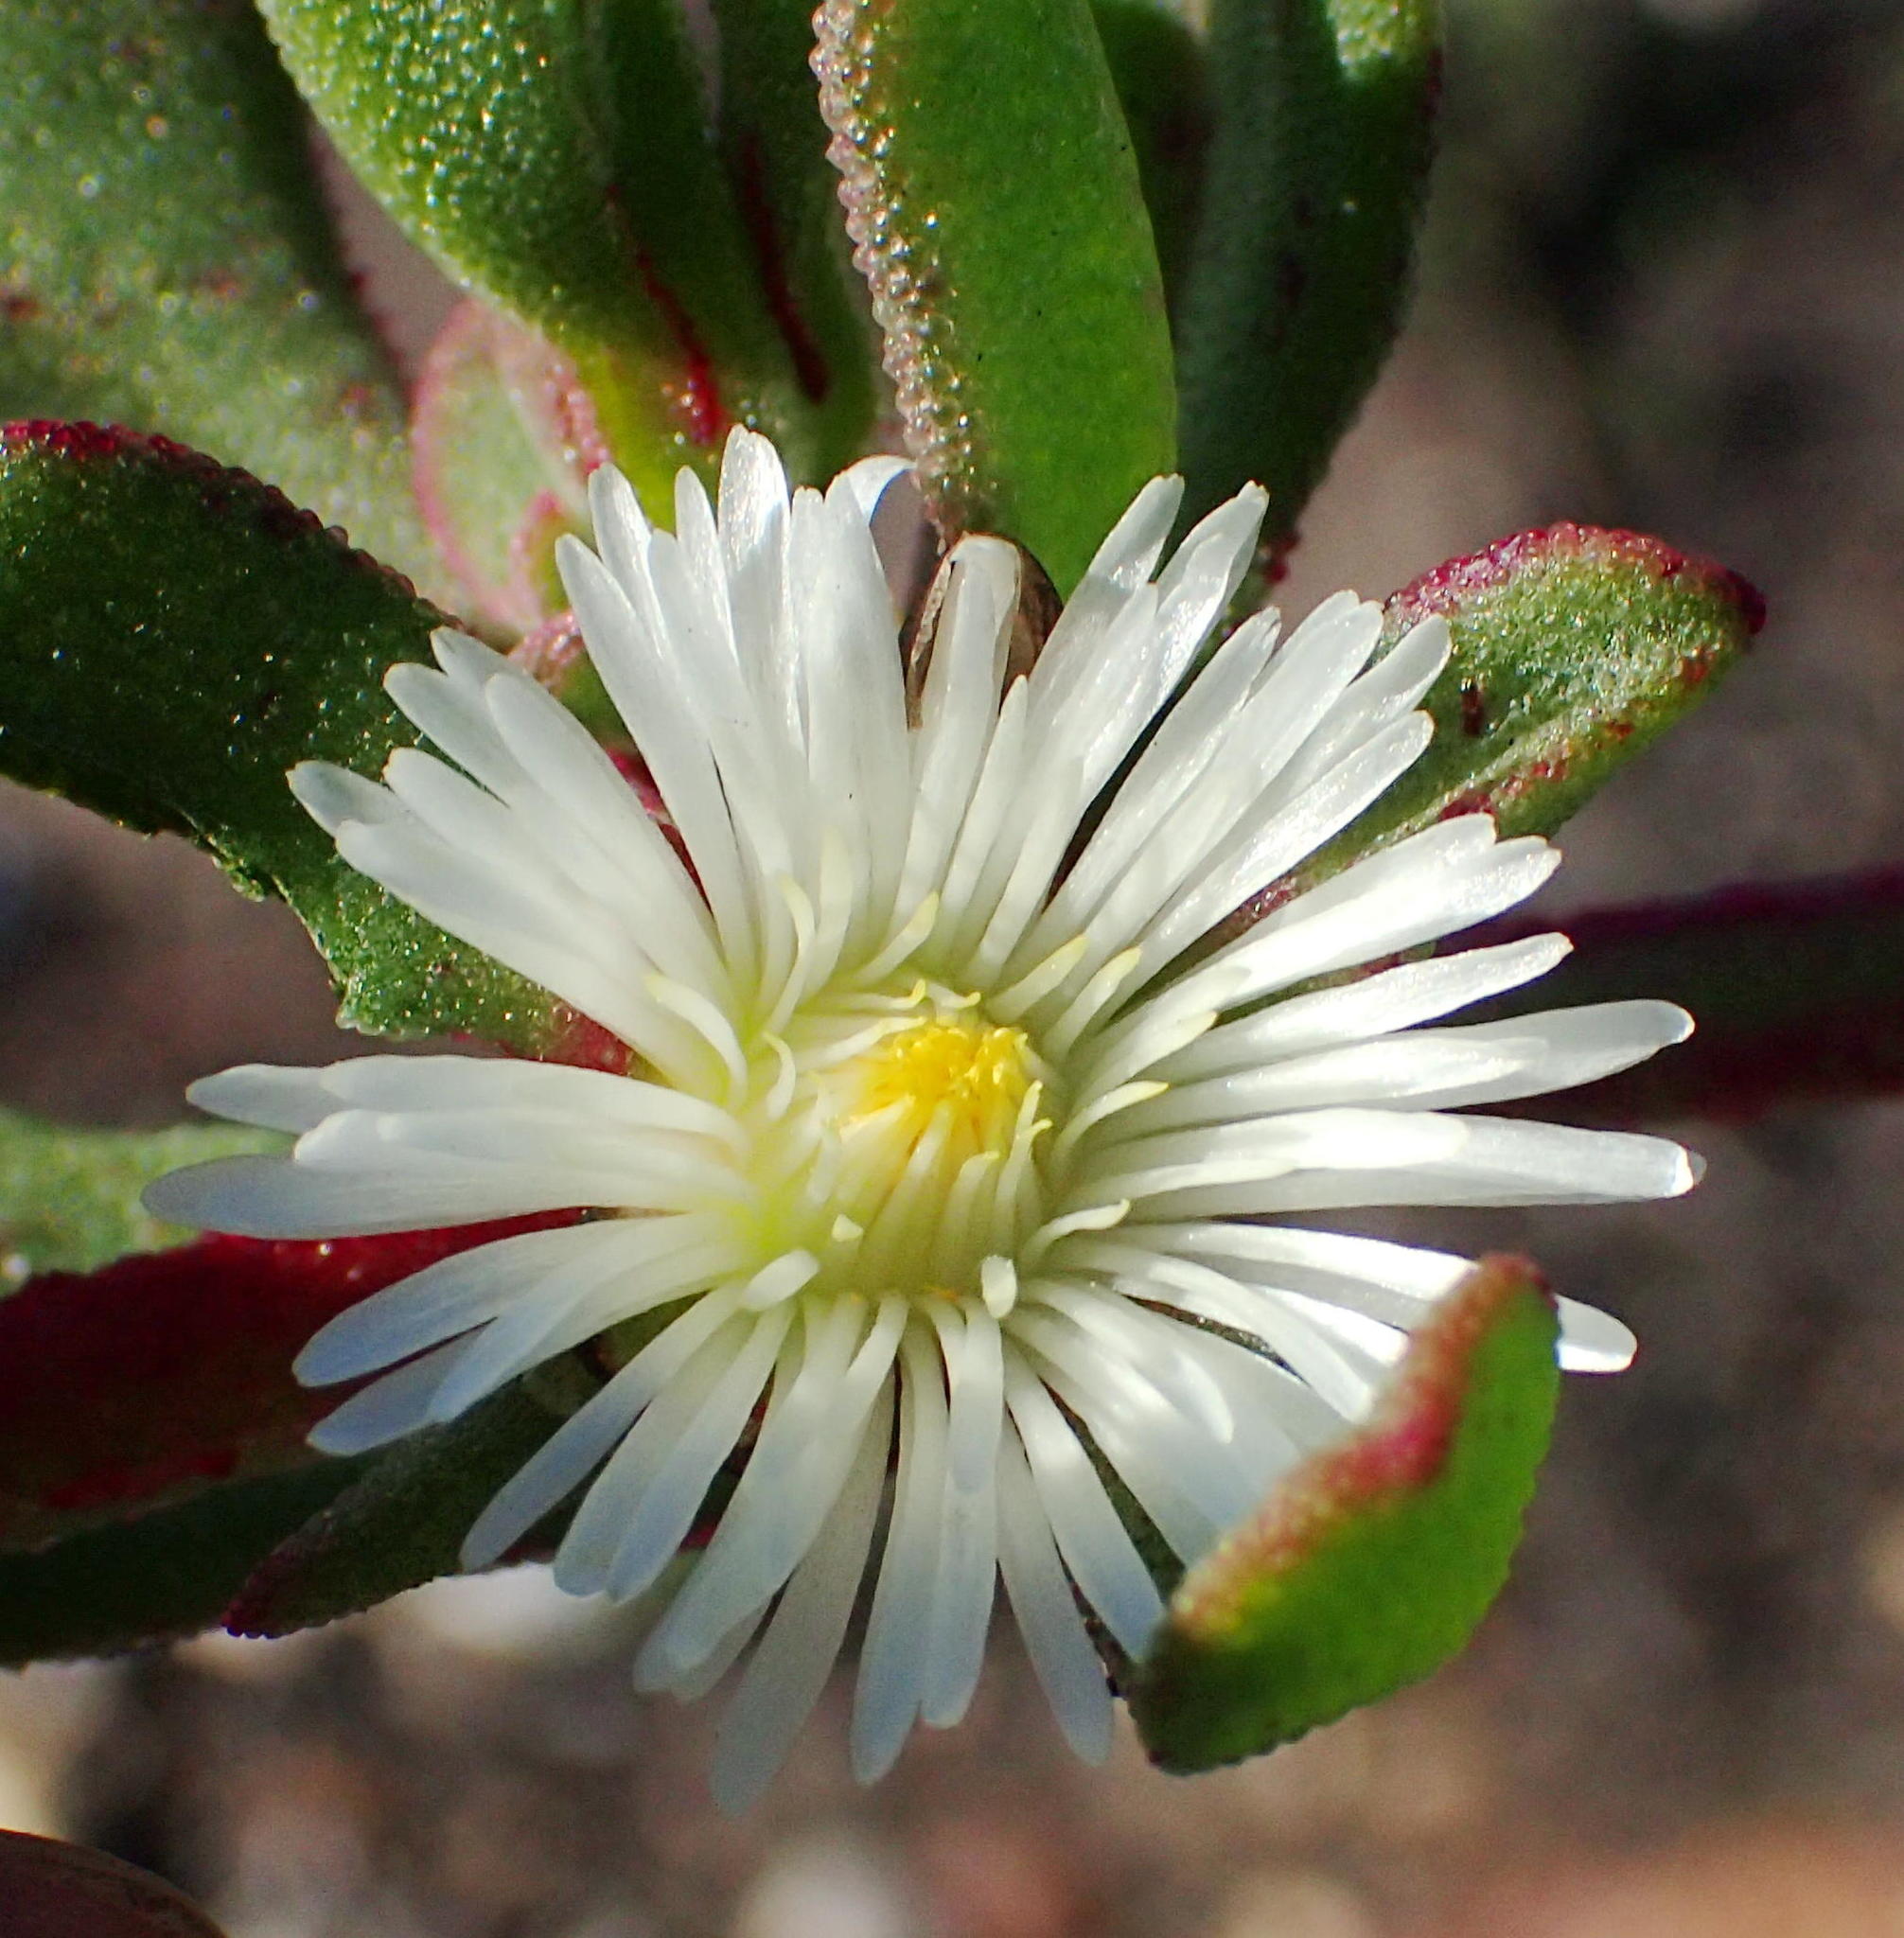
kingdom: Plantae
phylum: Tracheophyta
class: Magnoliopsida
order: Caryophyllales
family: Aizoaceae
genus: Mesembryanthemum
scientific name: Mesembryanthemum aitonis
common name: Angled iceplant
